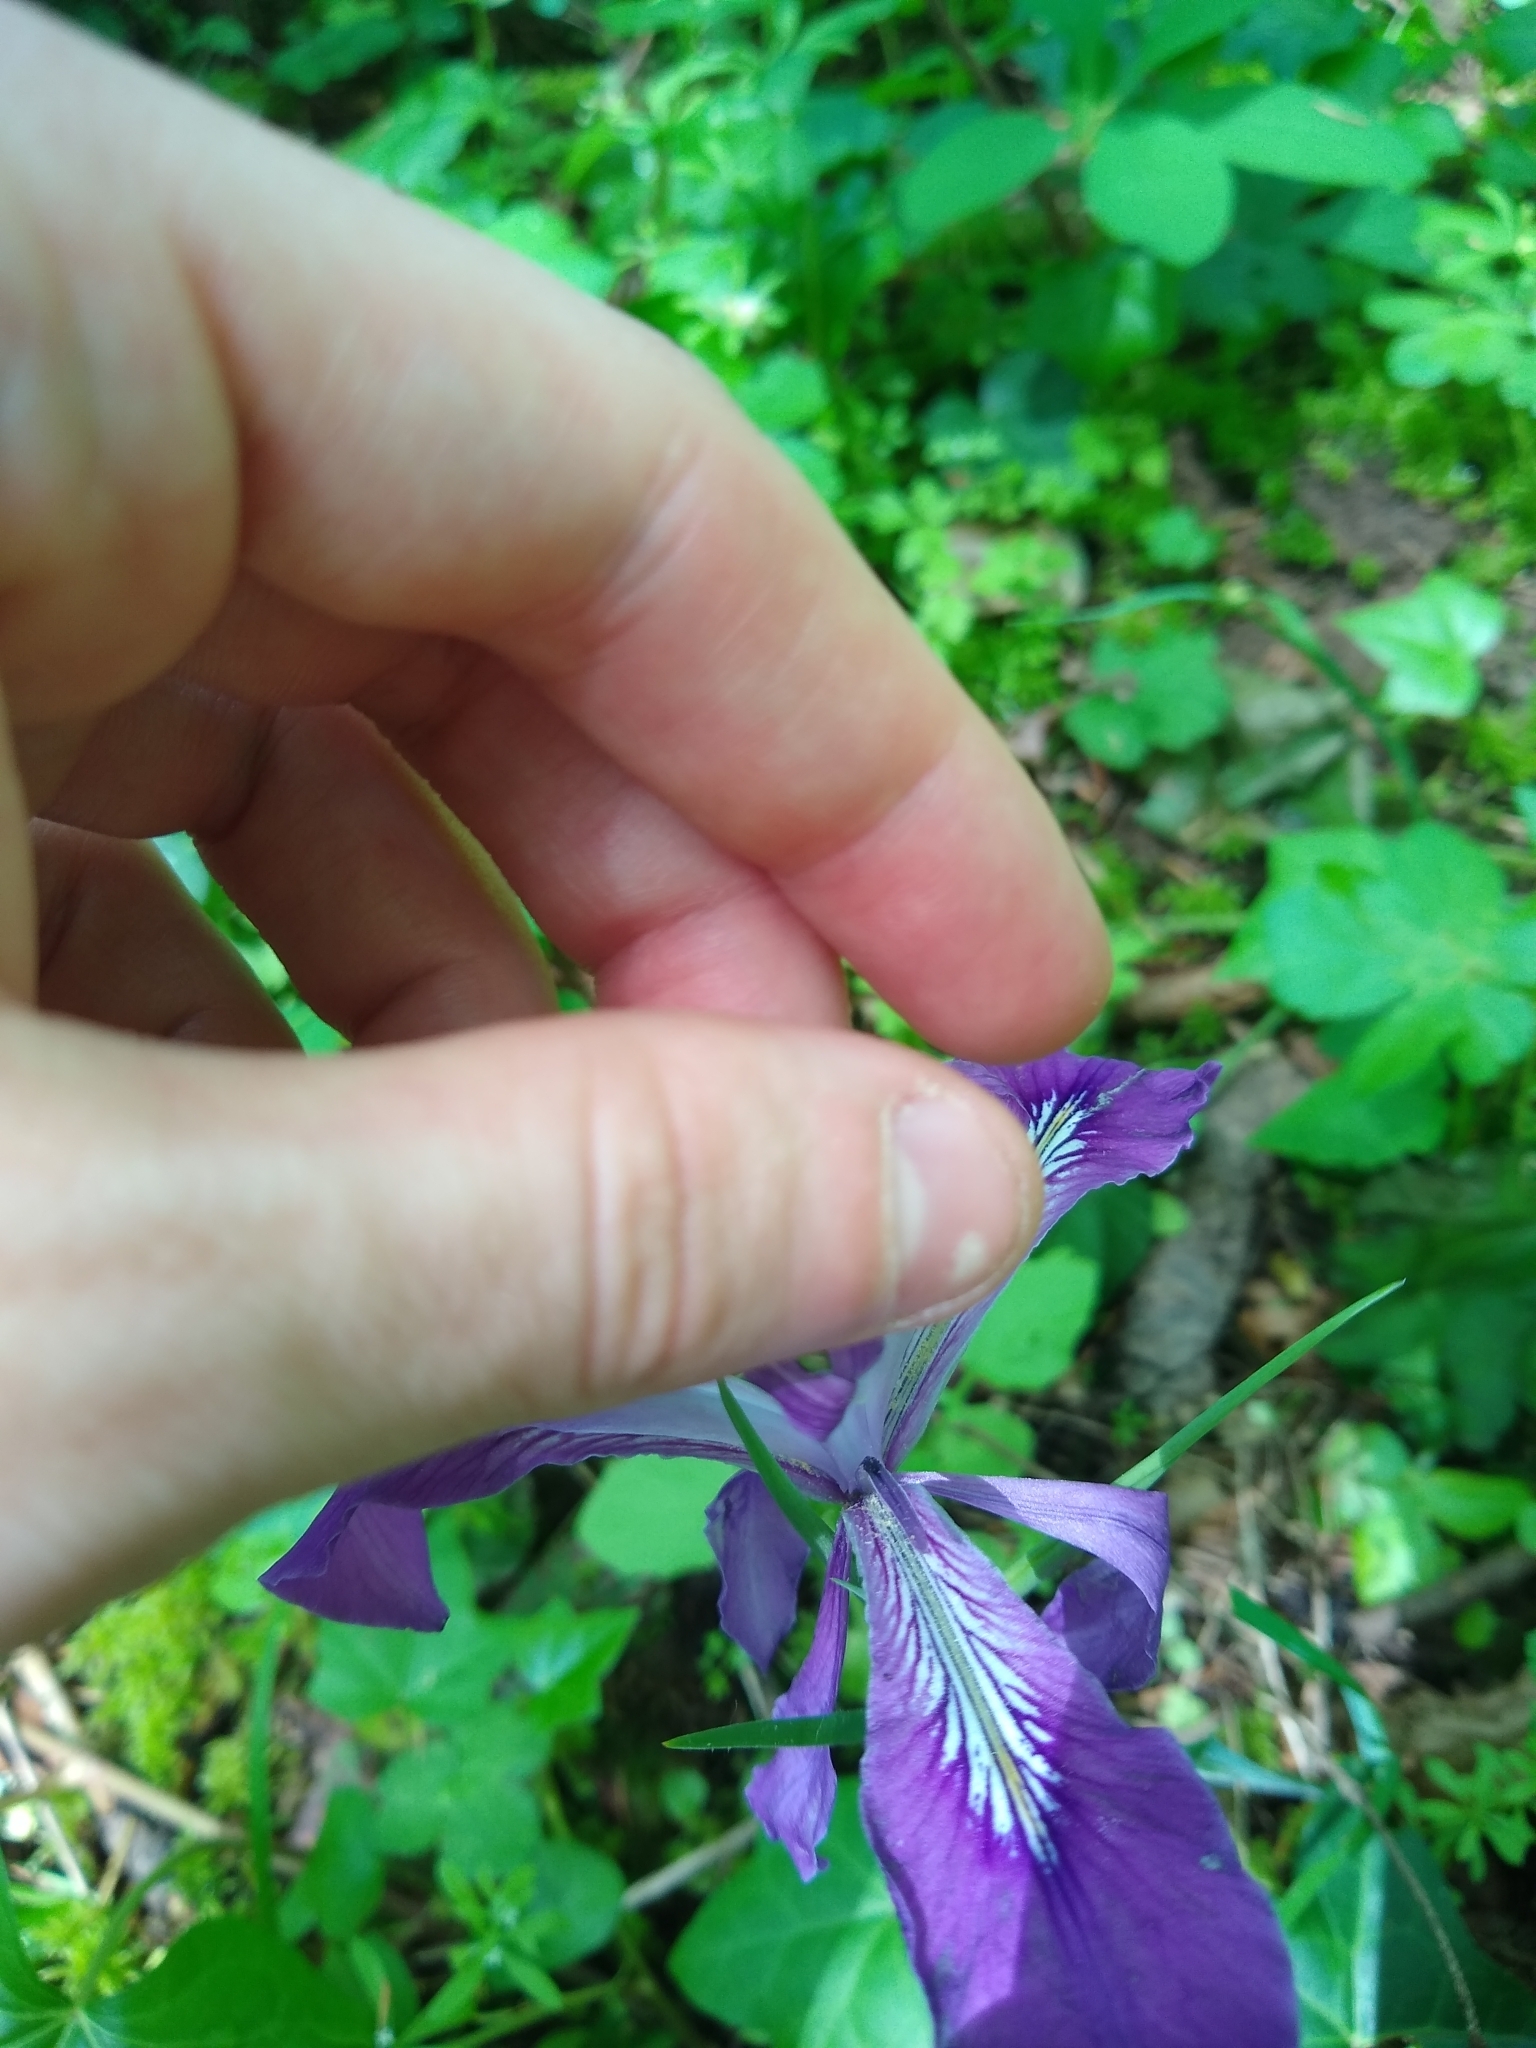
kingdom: Plantae
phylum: Tracheophyta
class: Liliopsida
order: Asparagales
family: Iridaceae
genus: Iris
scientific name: Iris tenax
